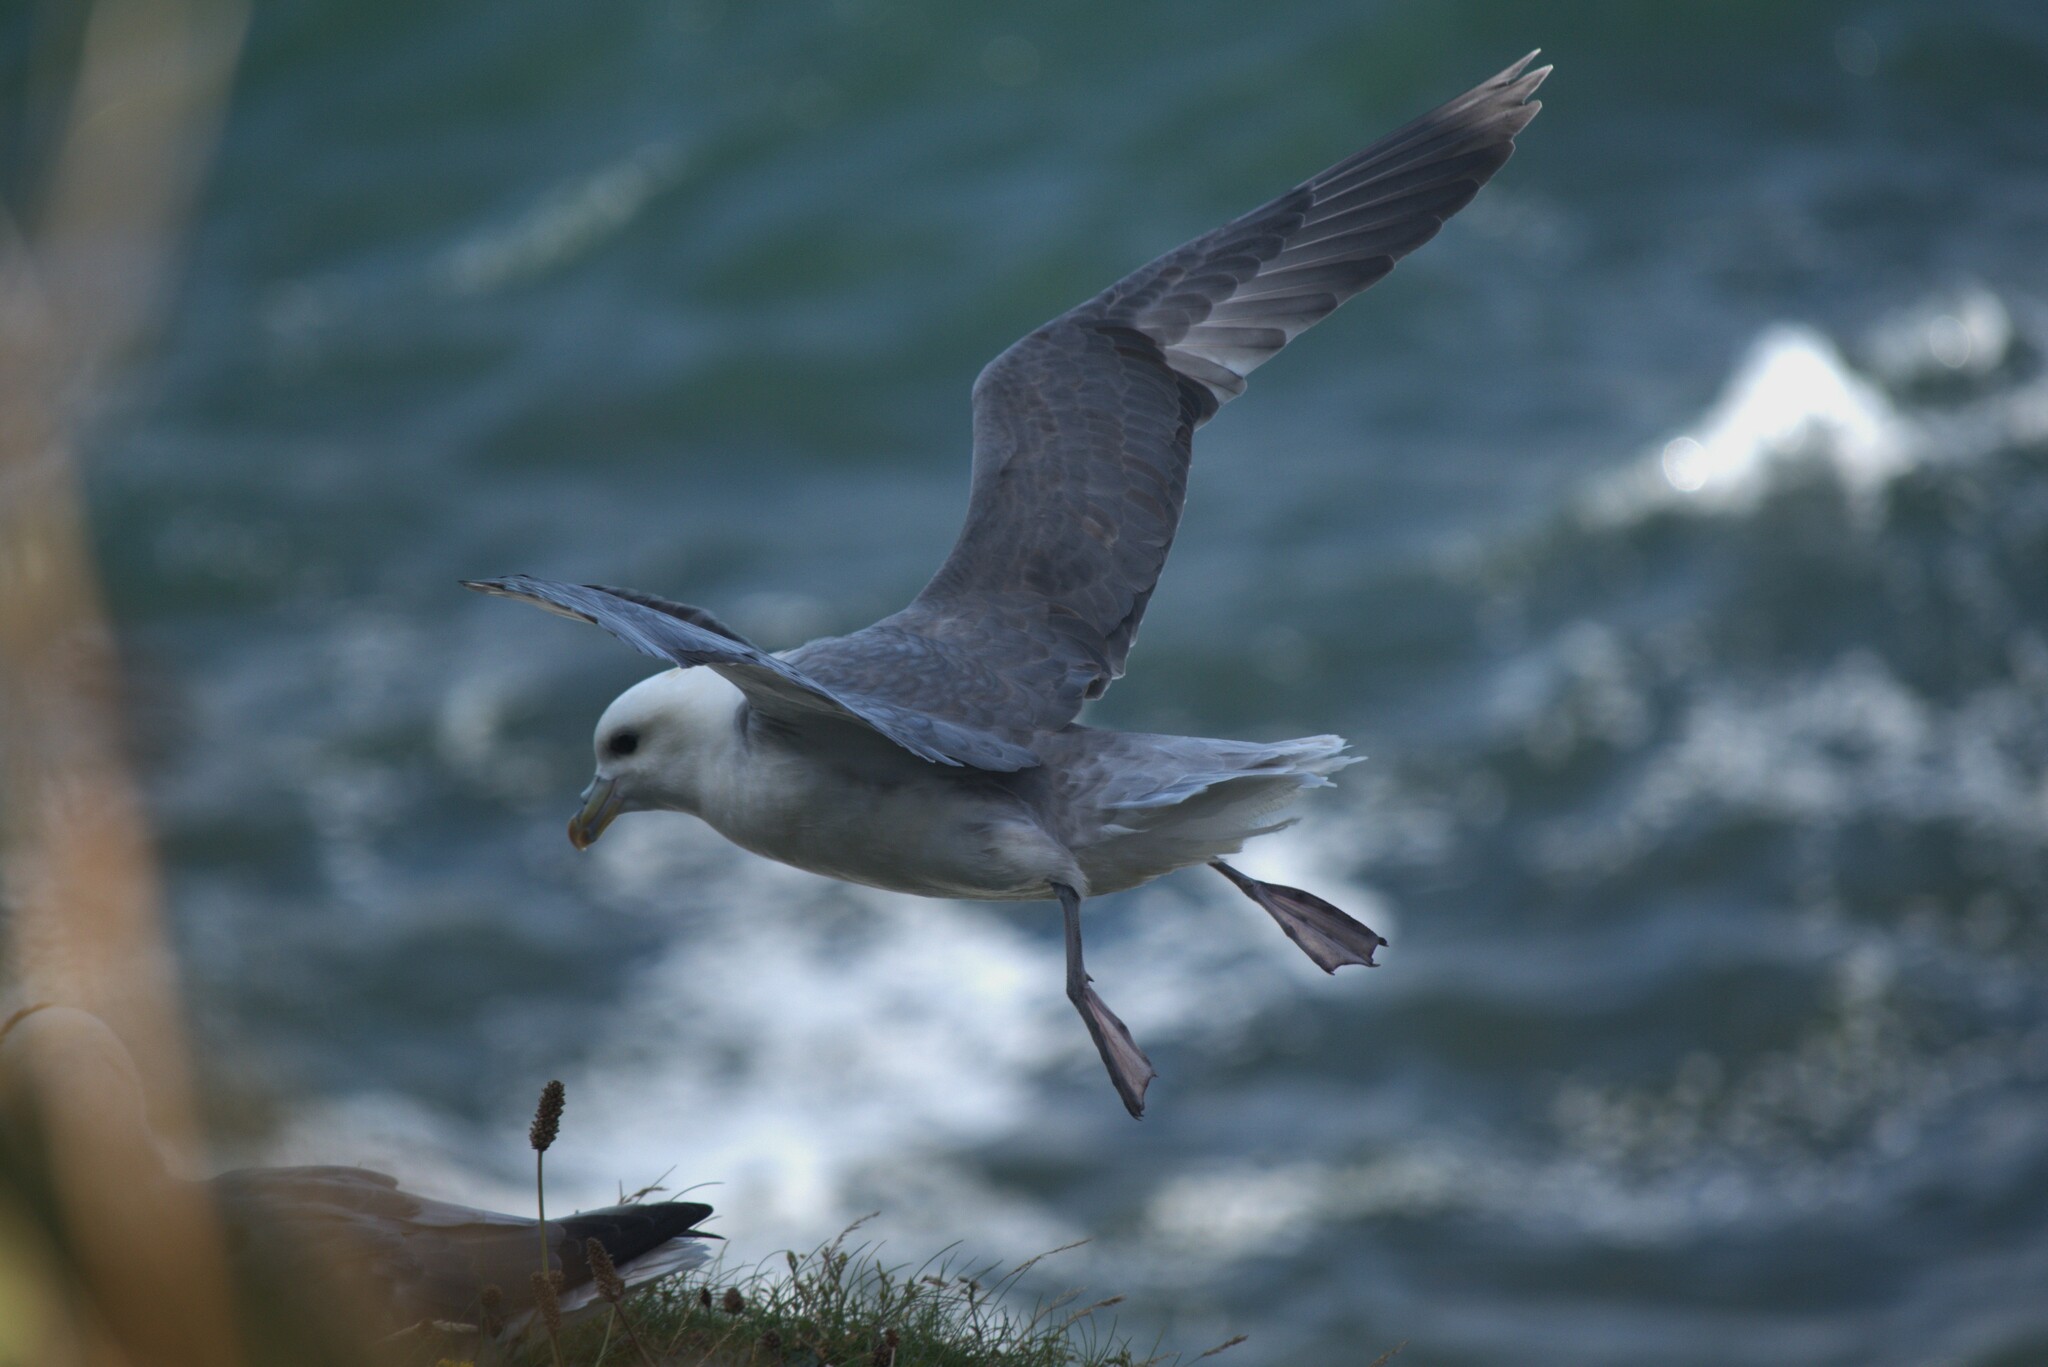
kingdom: Animalia
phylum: Chordata
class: Aves
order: Procellariiformes
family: Procellariidae
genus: Fulmarus
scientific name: Fulmarus glacialis
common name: Northern fulmar
